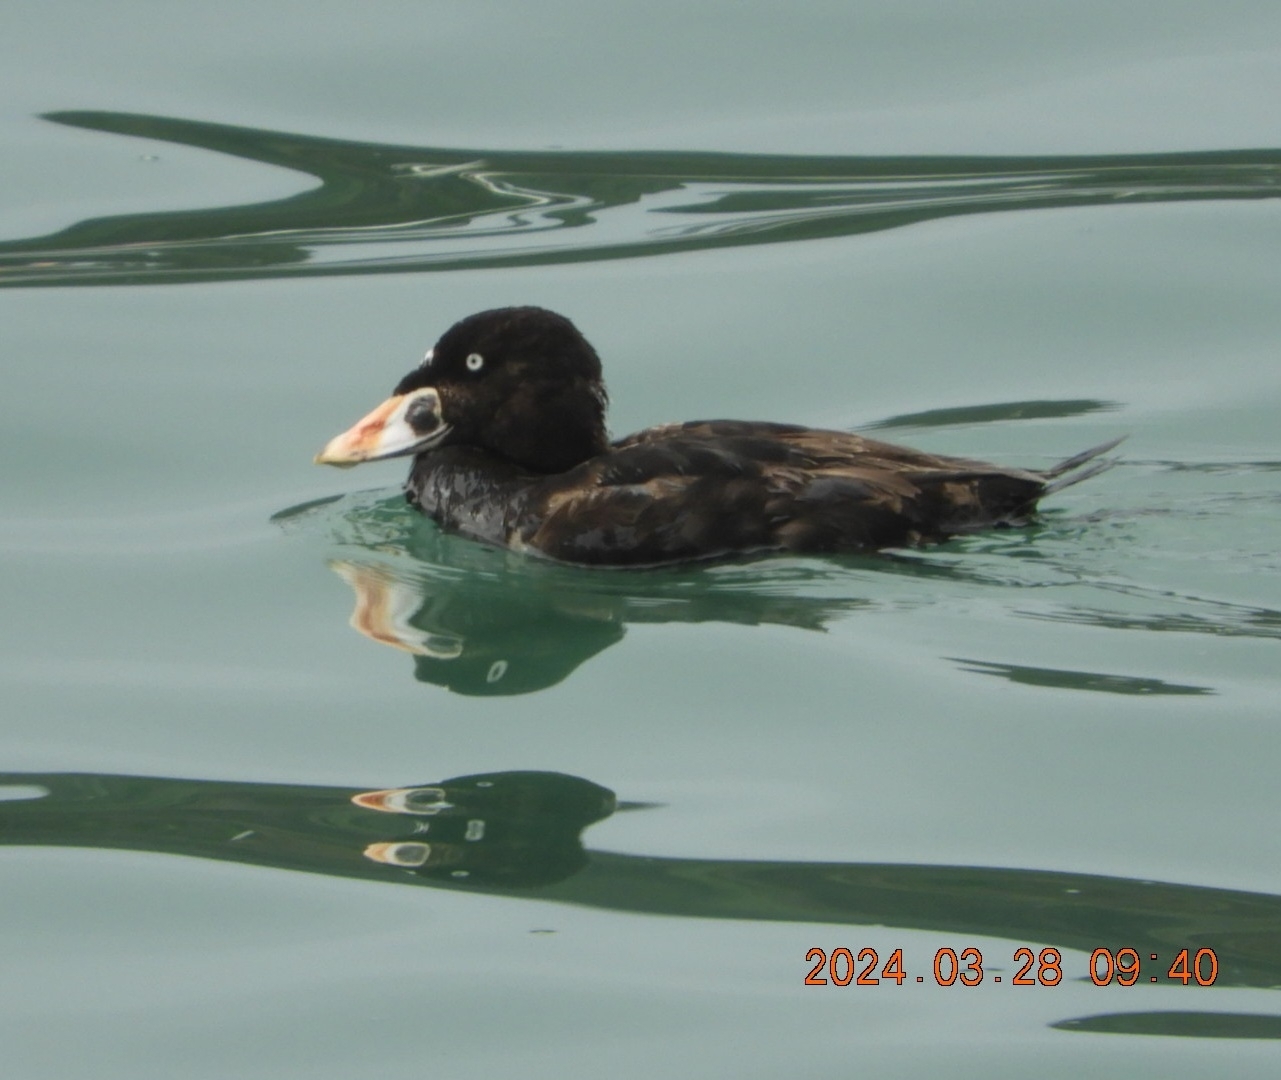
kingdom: Animalia
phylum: Chordata
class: Aves
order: Anseriformes
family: Anatidae
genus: Melanitta
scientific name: Melanitta perspicillata
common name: Surf scoter
